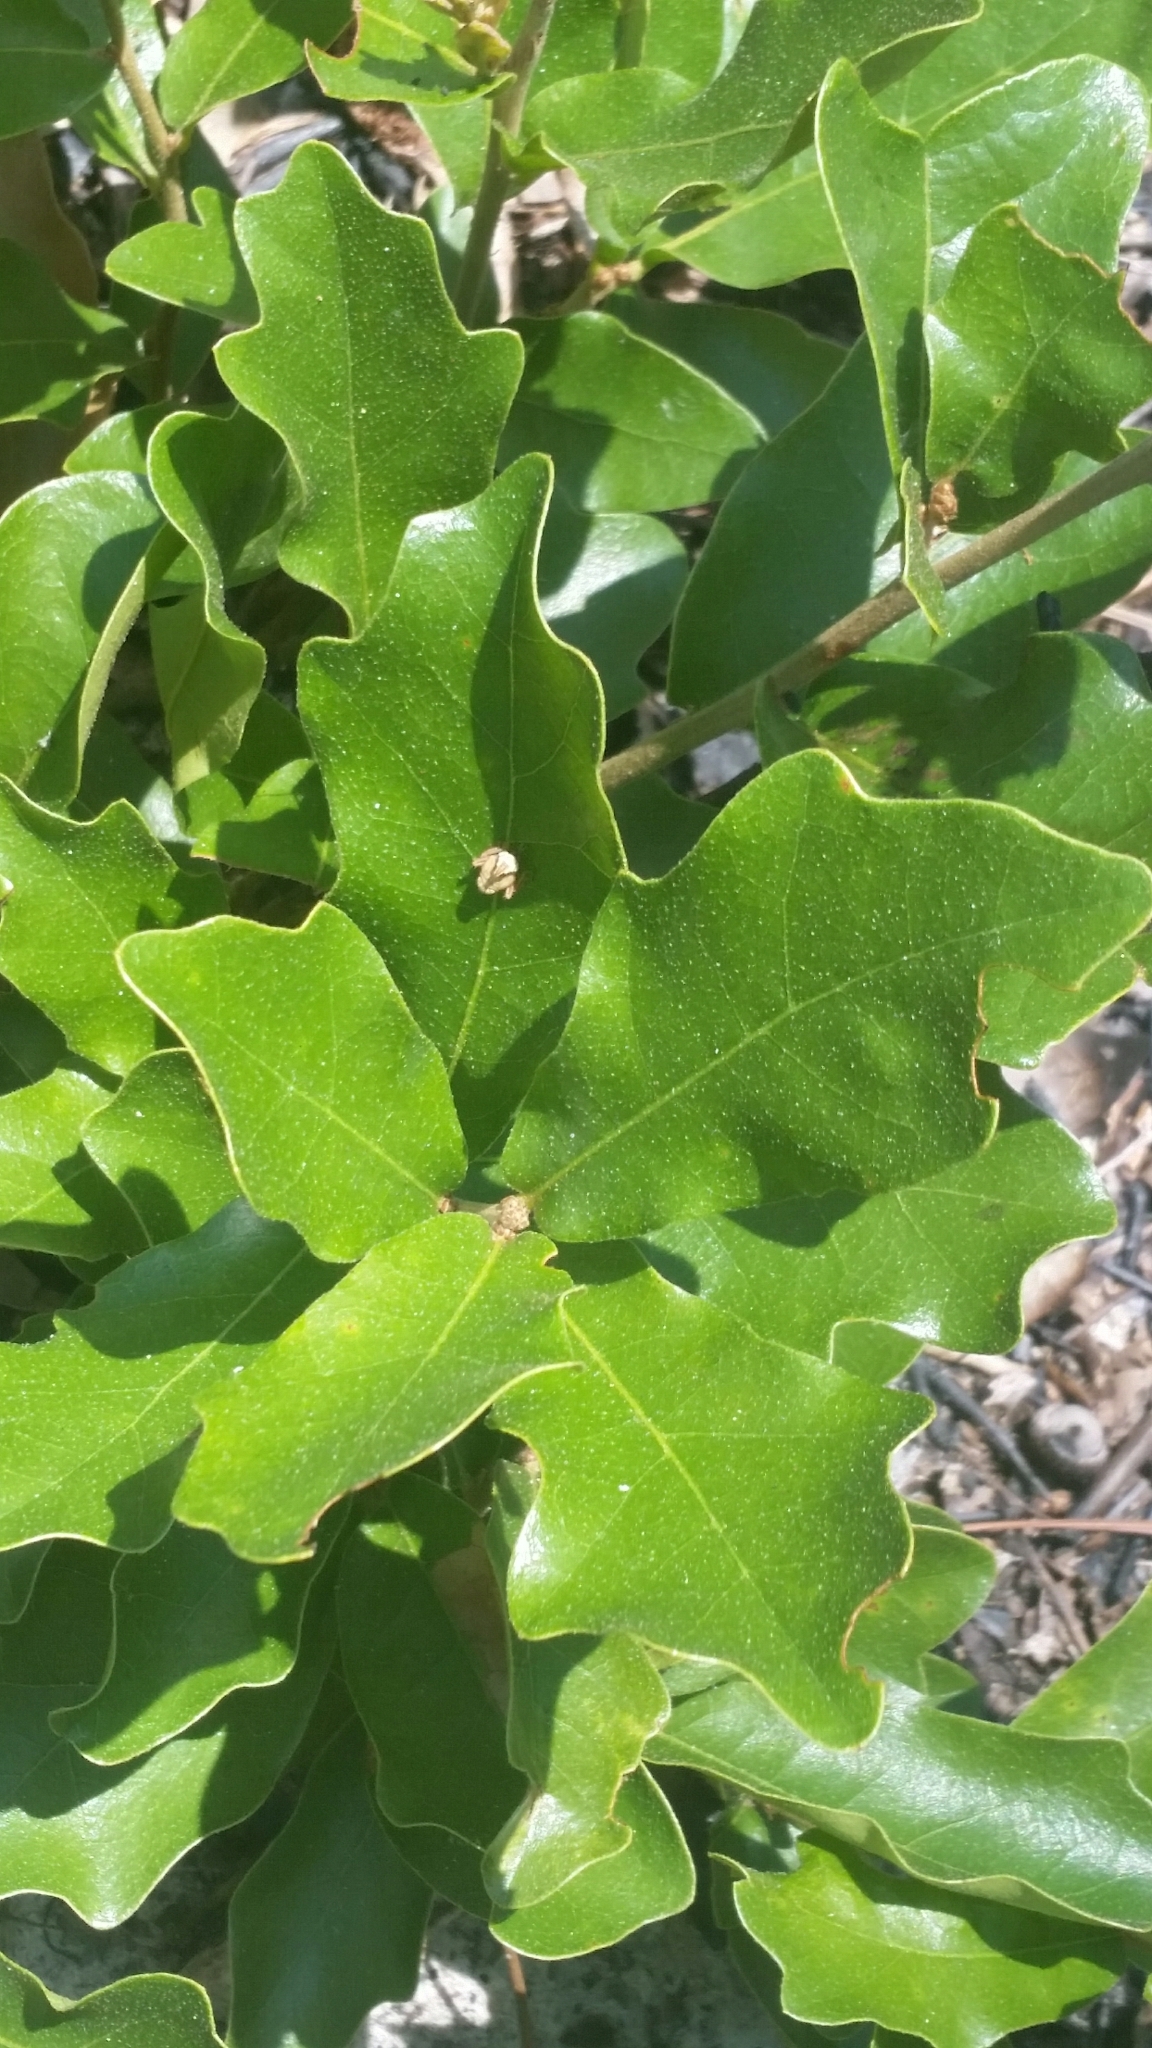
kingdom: Plantae
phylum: Tracheophyta
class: Magnoliopsida
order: Fagales
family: Fagaceae
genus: Quercus
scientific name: Quercus minima
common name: Dwarf live oak
